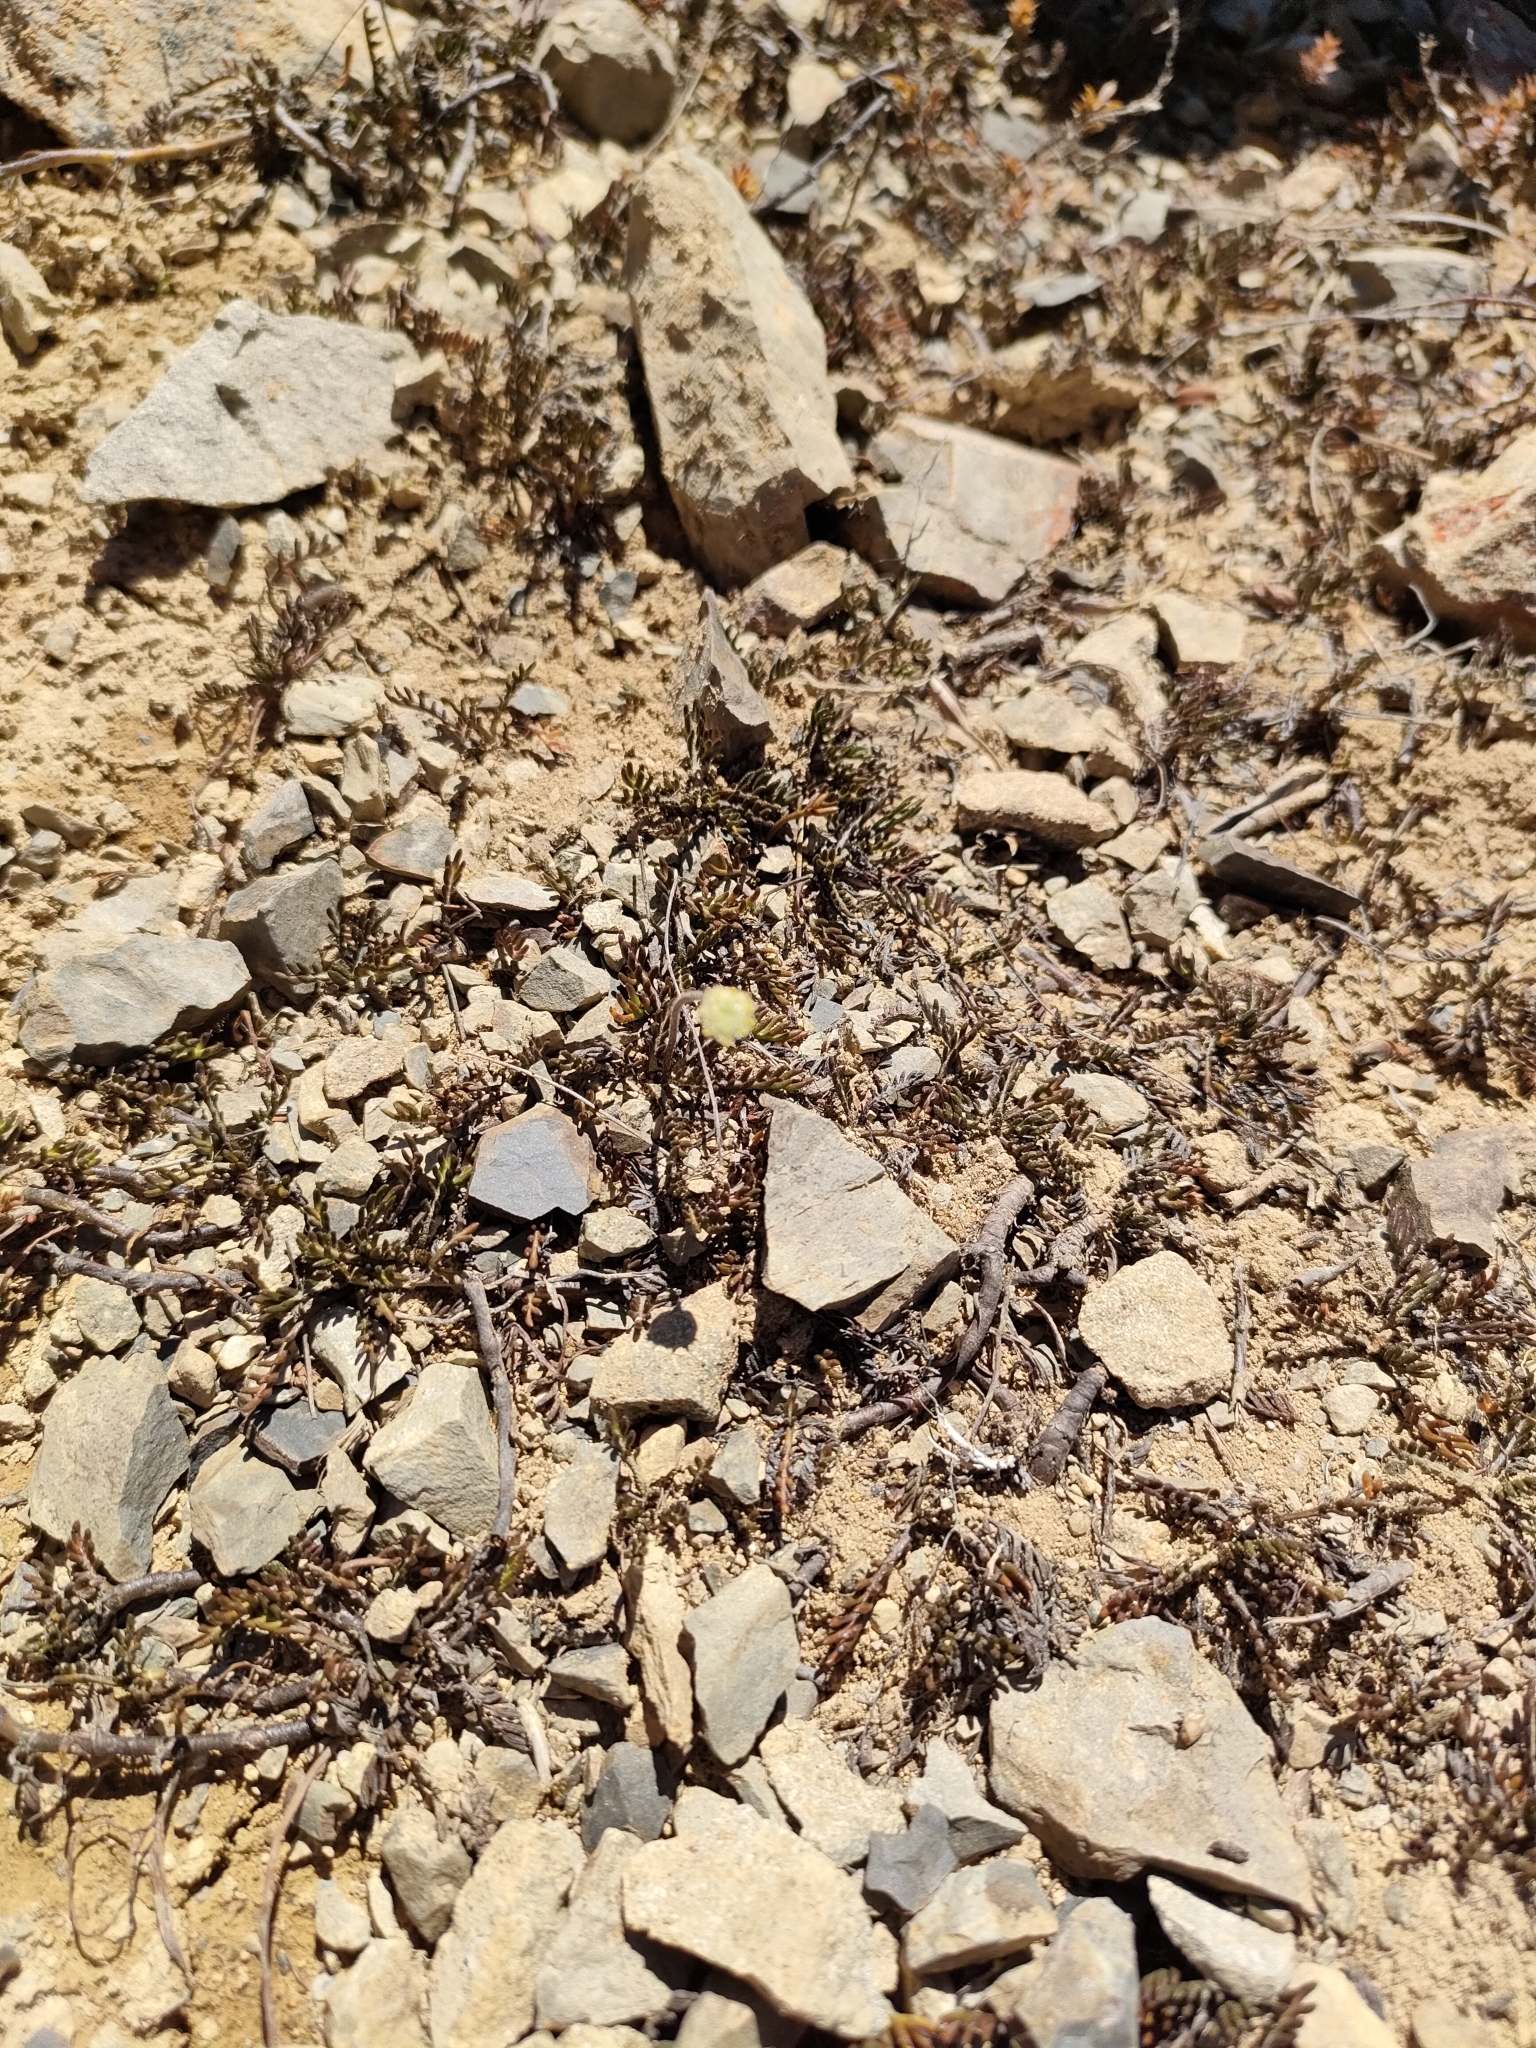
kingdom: Plantae
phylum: Tracheophyta
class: Magnoliopsida
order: Asterales
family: Asteraceae
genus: Leptinella
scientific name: Leptinella pectinata
